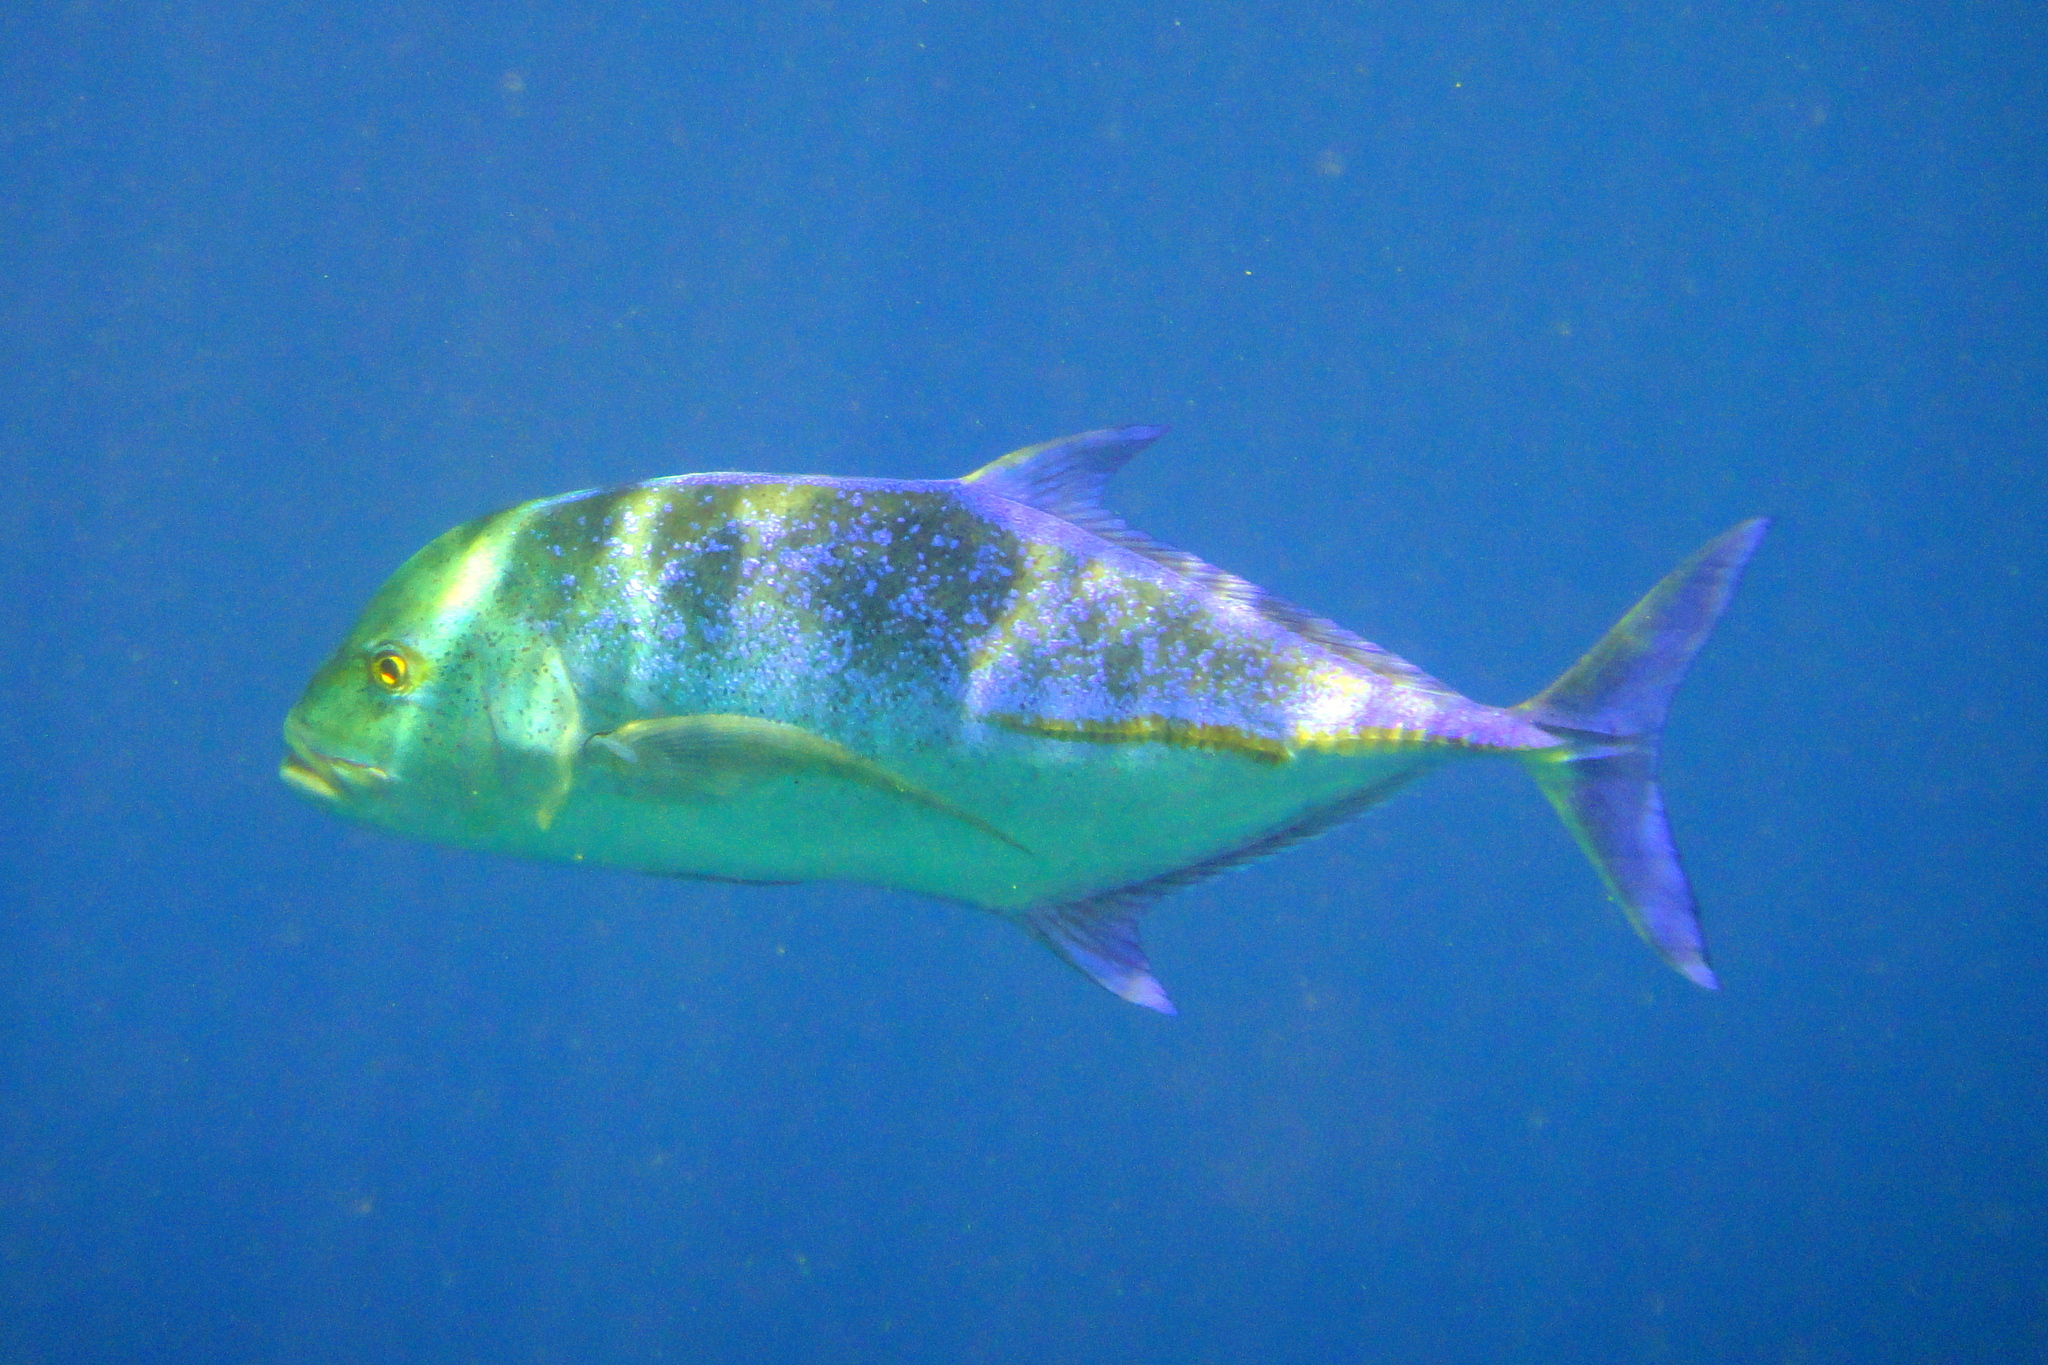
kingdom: Animalia
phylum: Chordata
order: Perciformes
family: Carangidae
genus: Caranx
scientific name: Caranx melampygus
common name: Bluefin trevally
